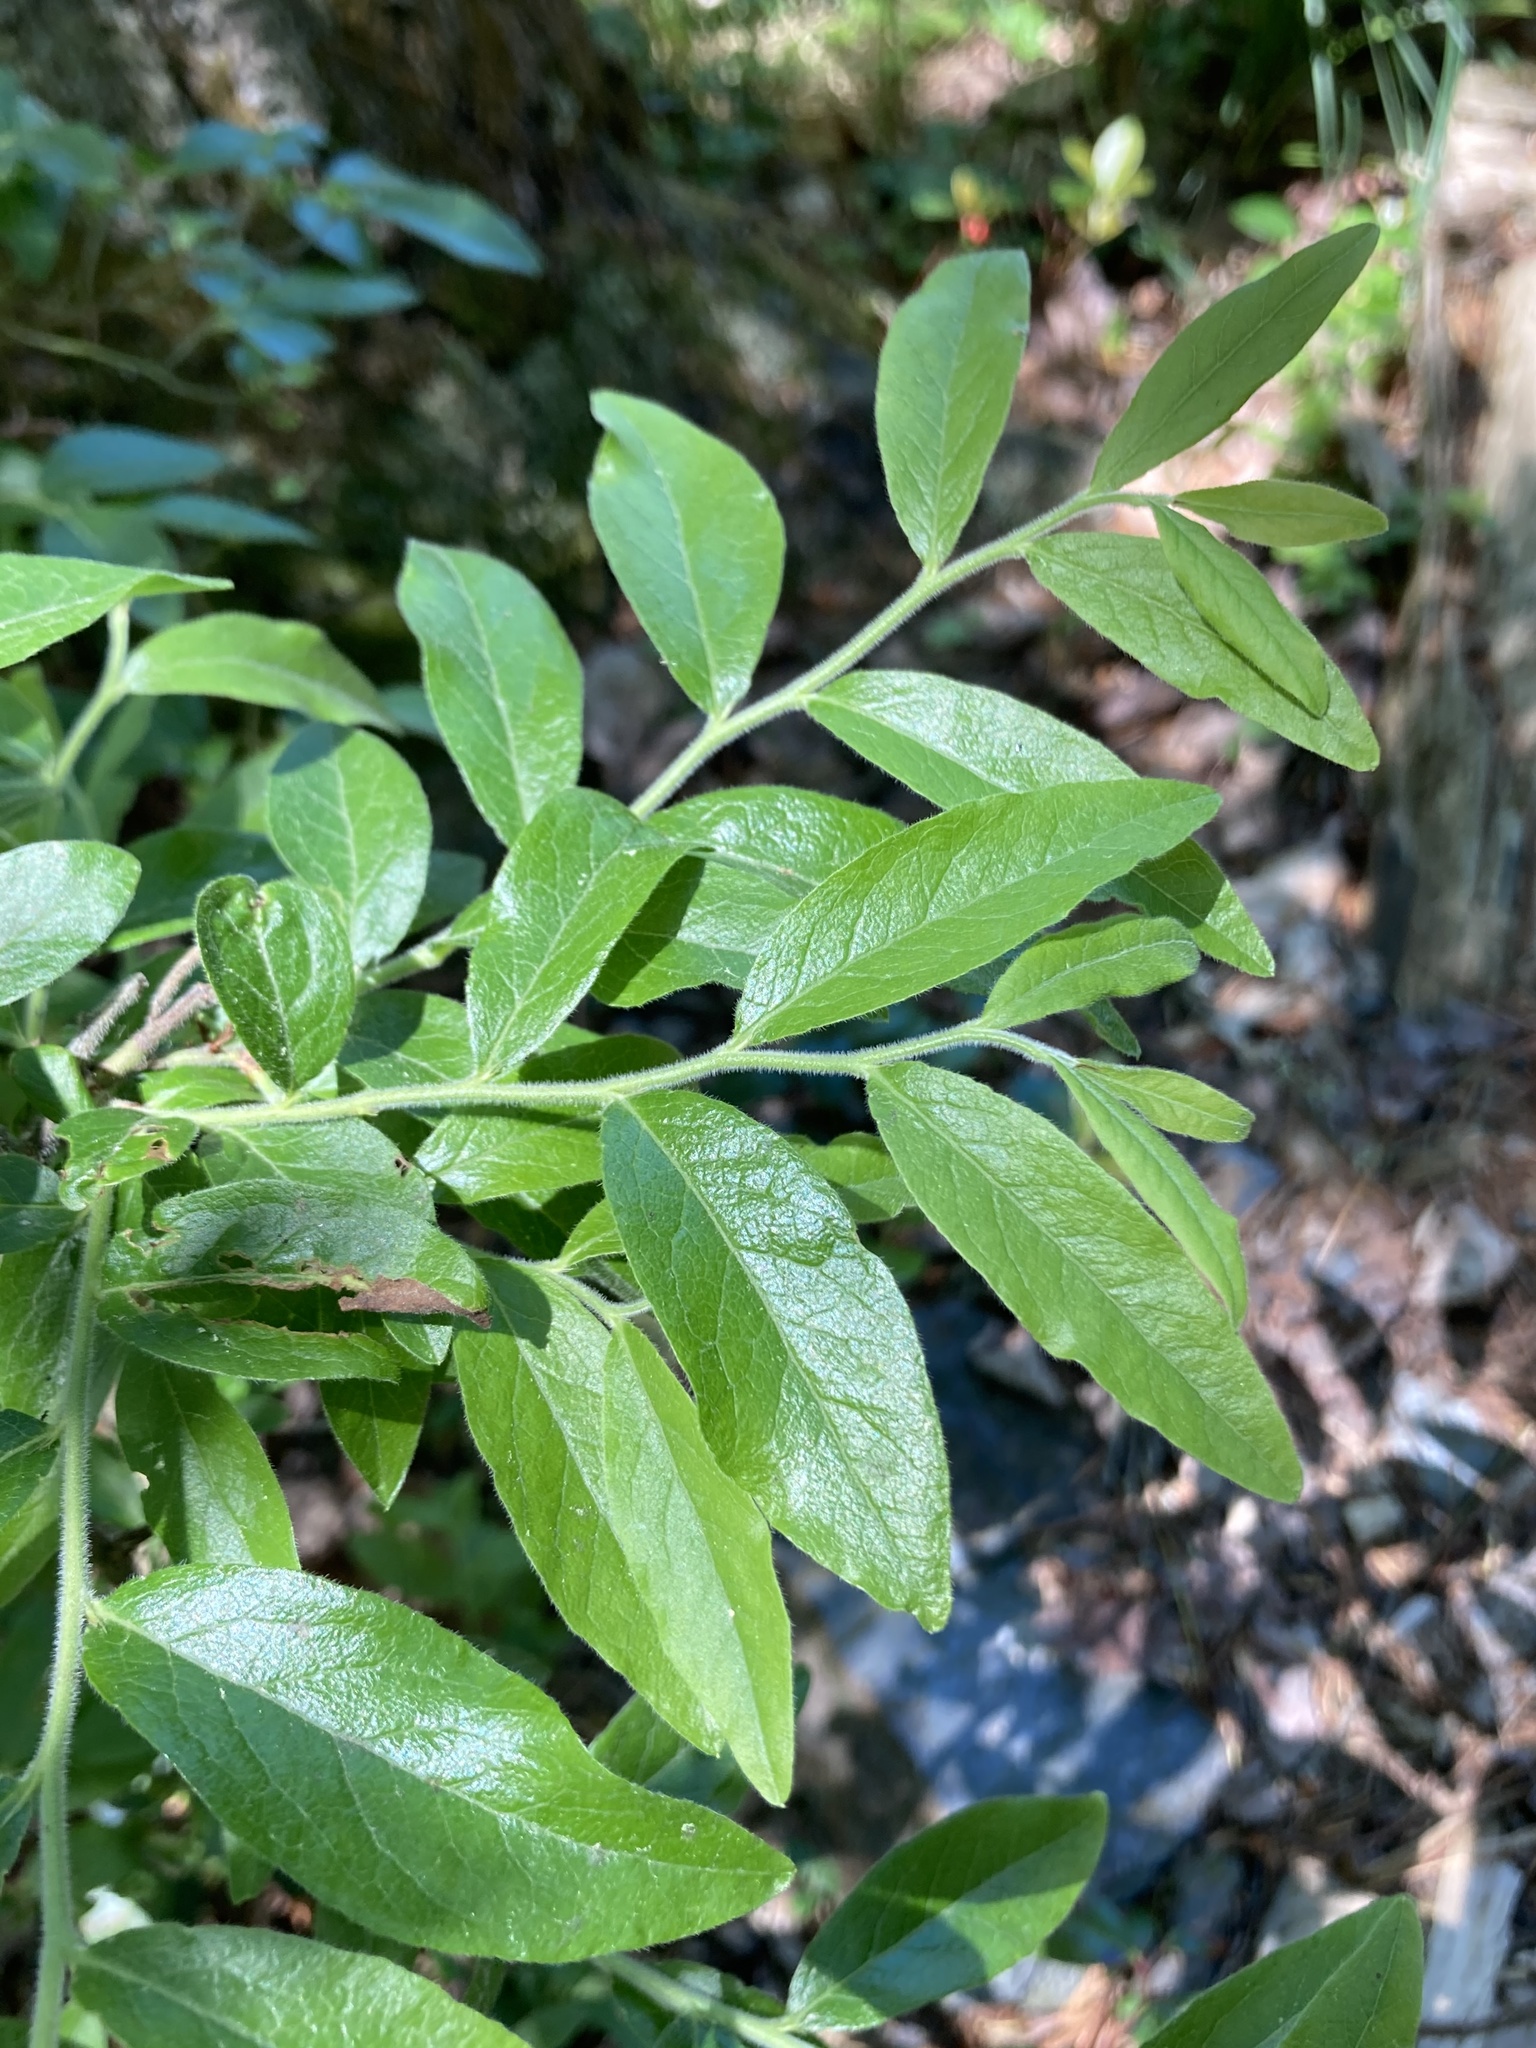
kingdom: Plantae
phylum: Tracheophyta
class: Magnoliopsida
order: Ericales
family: Ericaceae
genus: Vaccinium
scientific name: Vaccinium myrtilloides
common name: Canada blueberry
